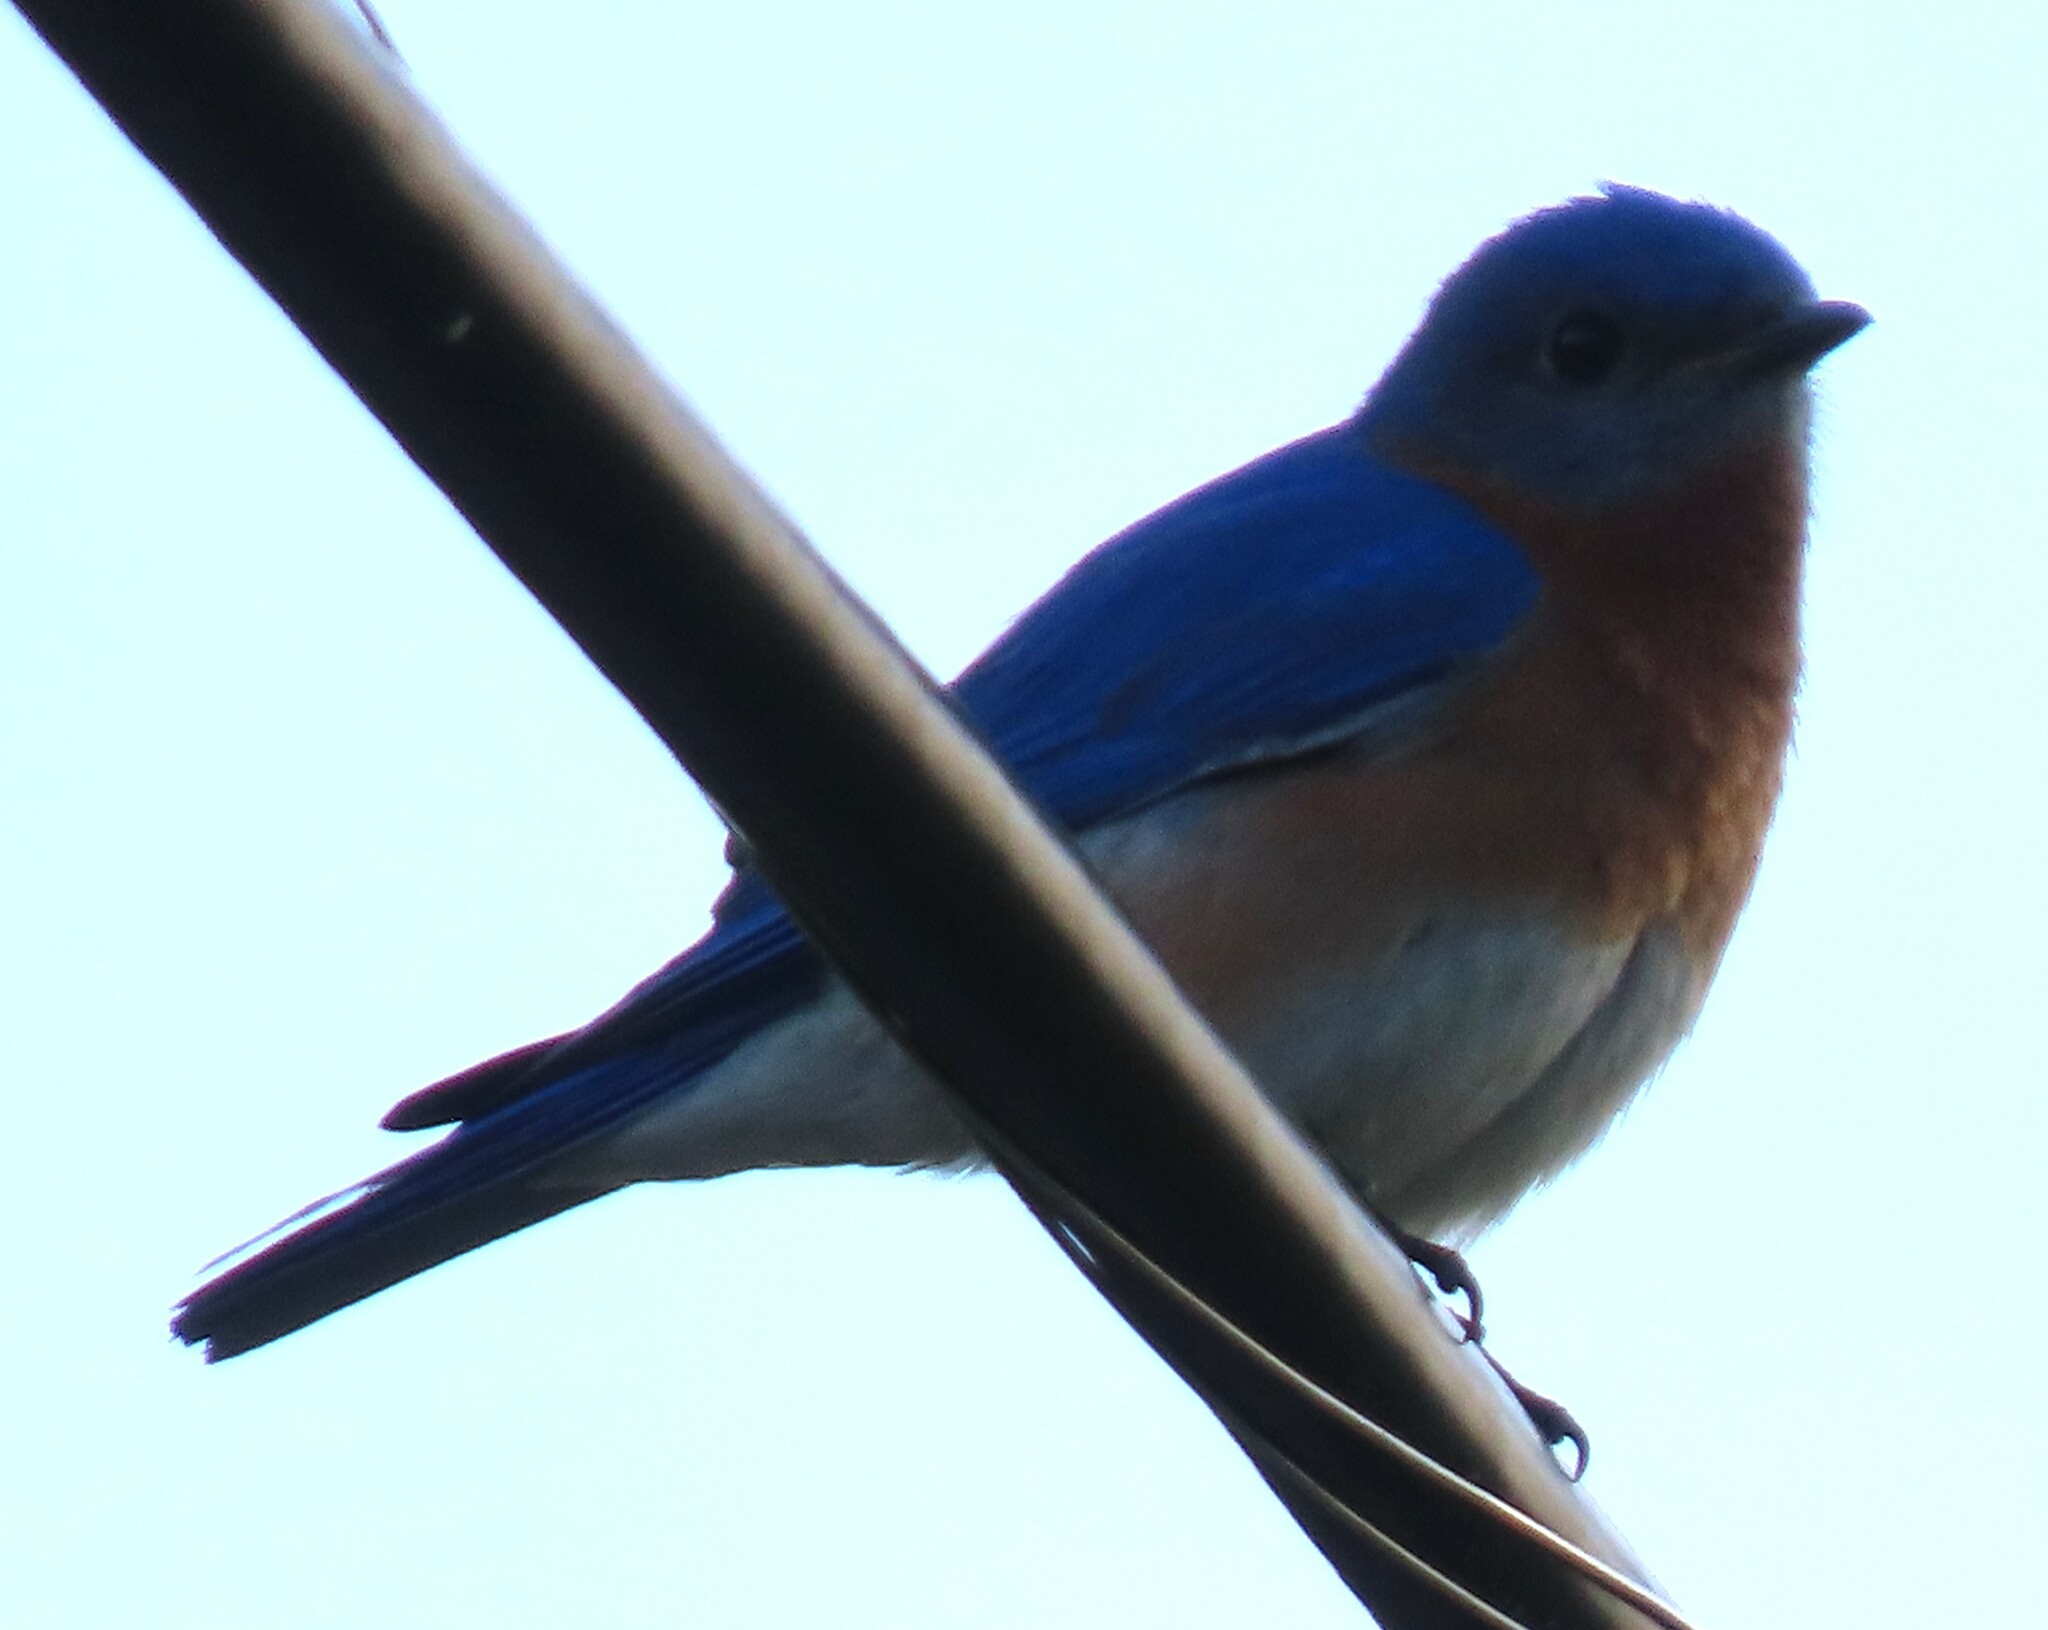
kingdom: Animalia
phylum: Chordata
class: Aves
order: Passeriformes
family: Turdidae
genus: Sialia
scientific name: Sialia sialis
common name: Eastern bluebird
